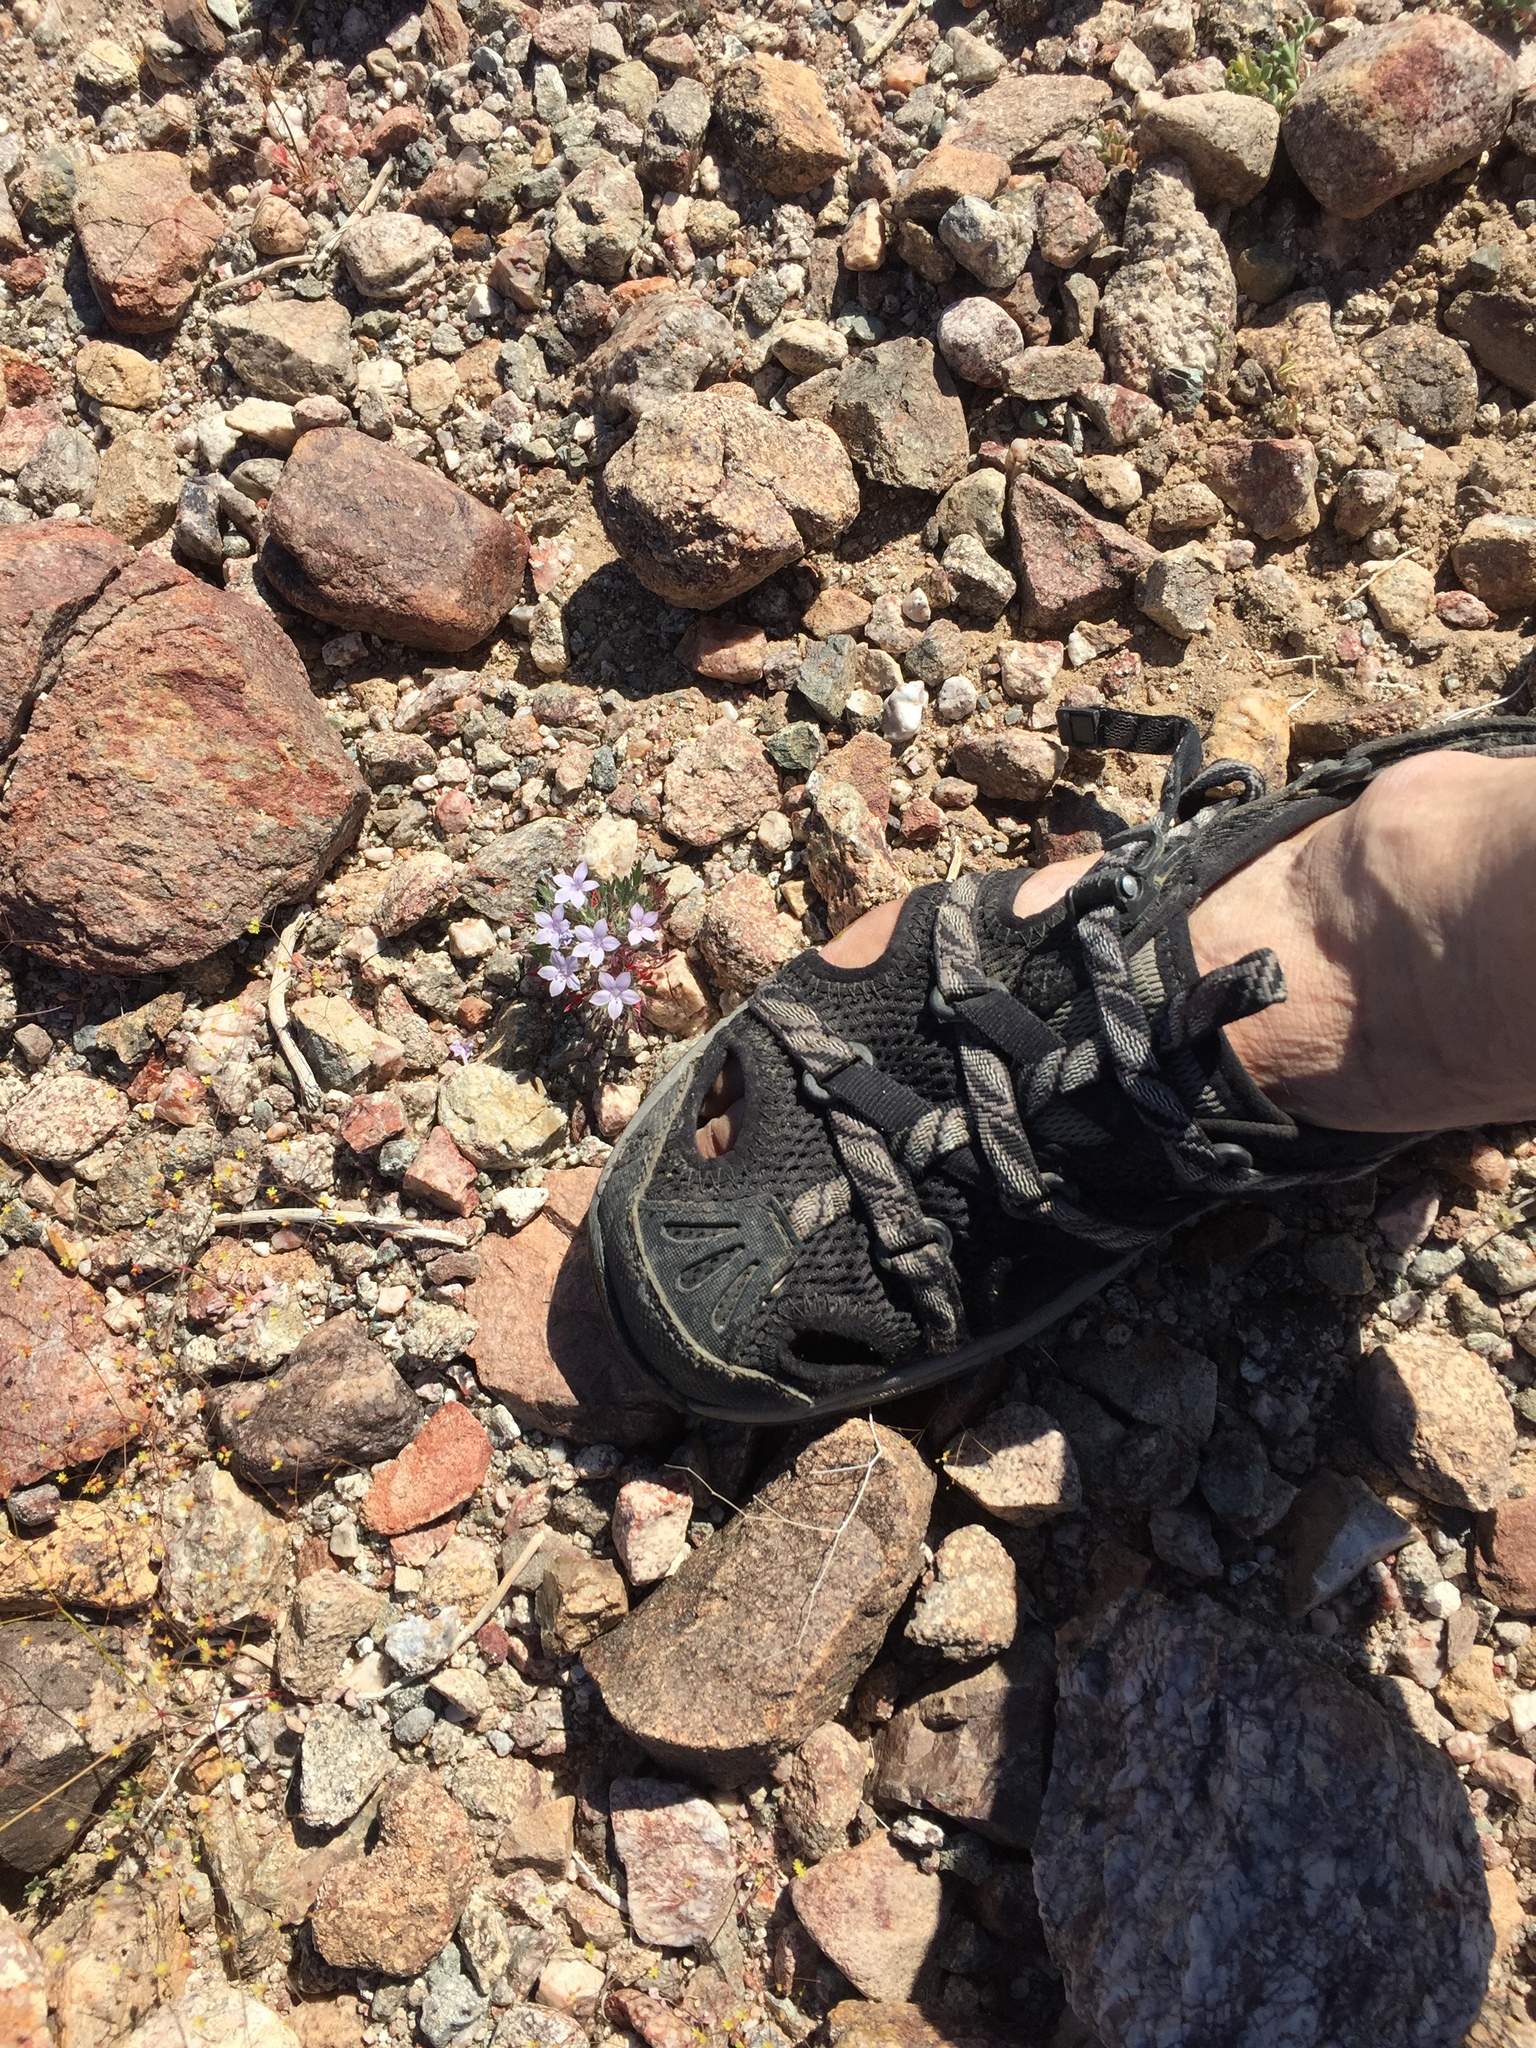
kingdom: Plantae
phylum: Tracheophyta
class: Magnoliopsida
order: Ericales
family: Polemoniaceae
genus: Langloisia
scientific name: Langloisia setosissima
